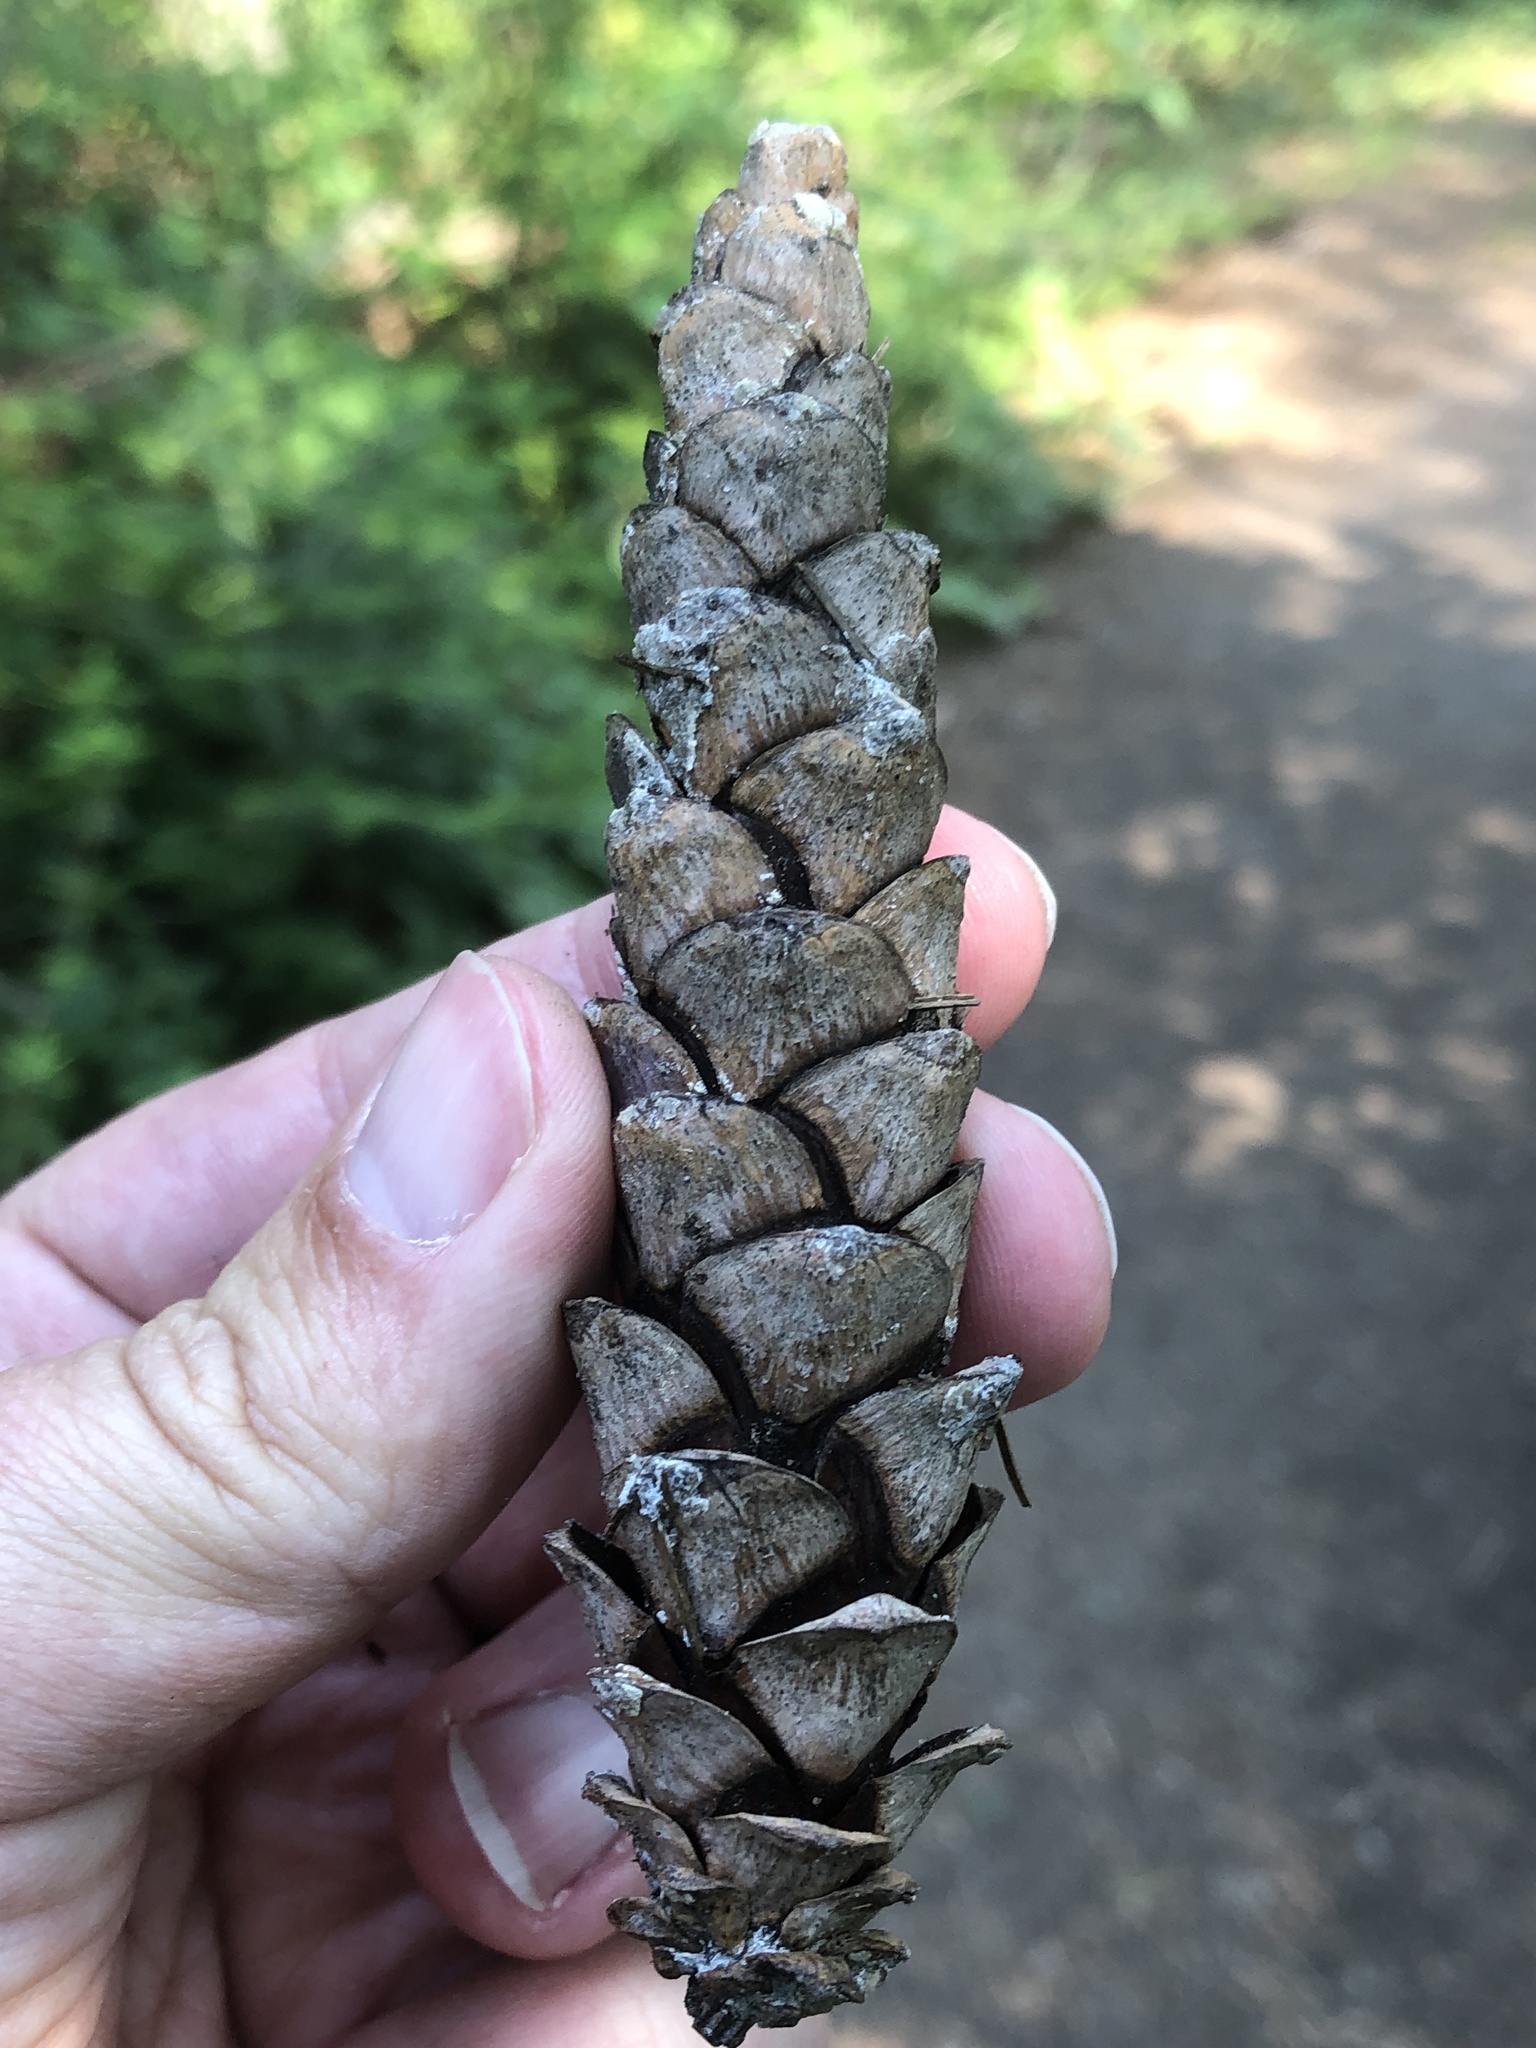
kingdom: Plantae
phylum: Tracheophyta
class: Pinopsida
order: Pinales
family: Pinaceae
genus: Pinus
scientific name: Pinus strobus
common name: Weymouth pine
